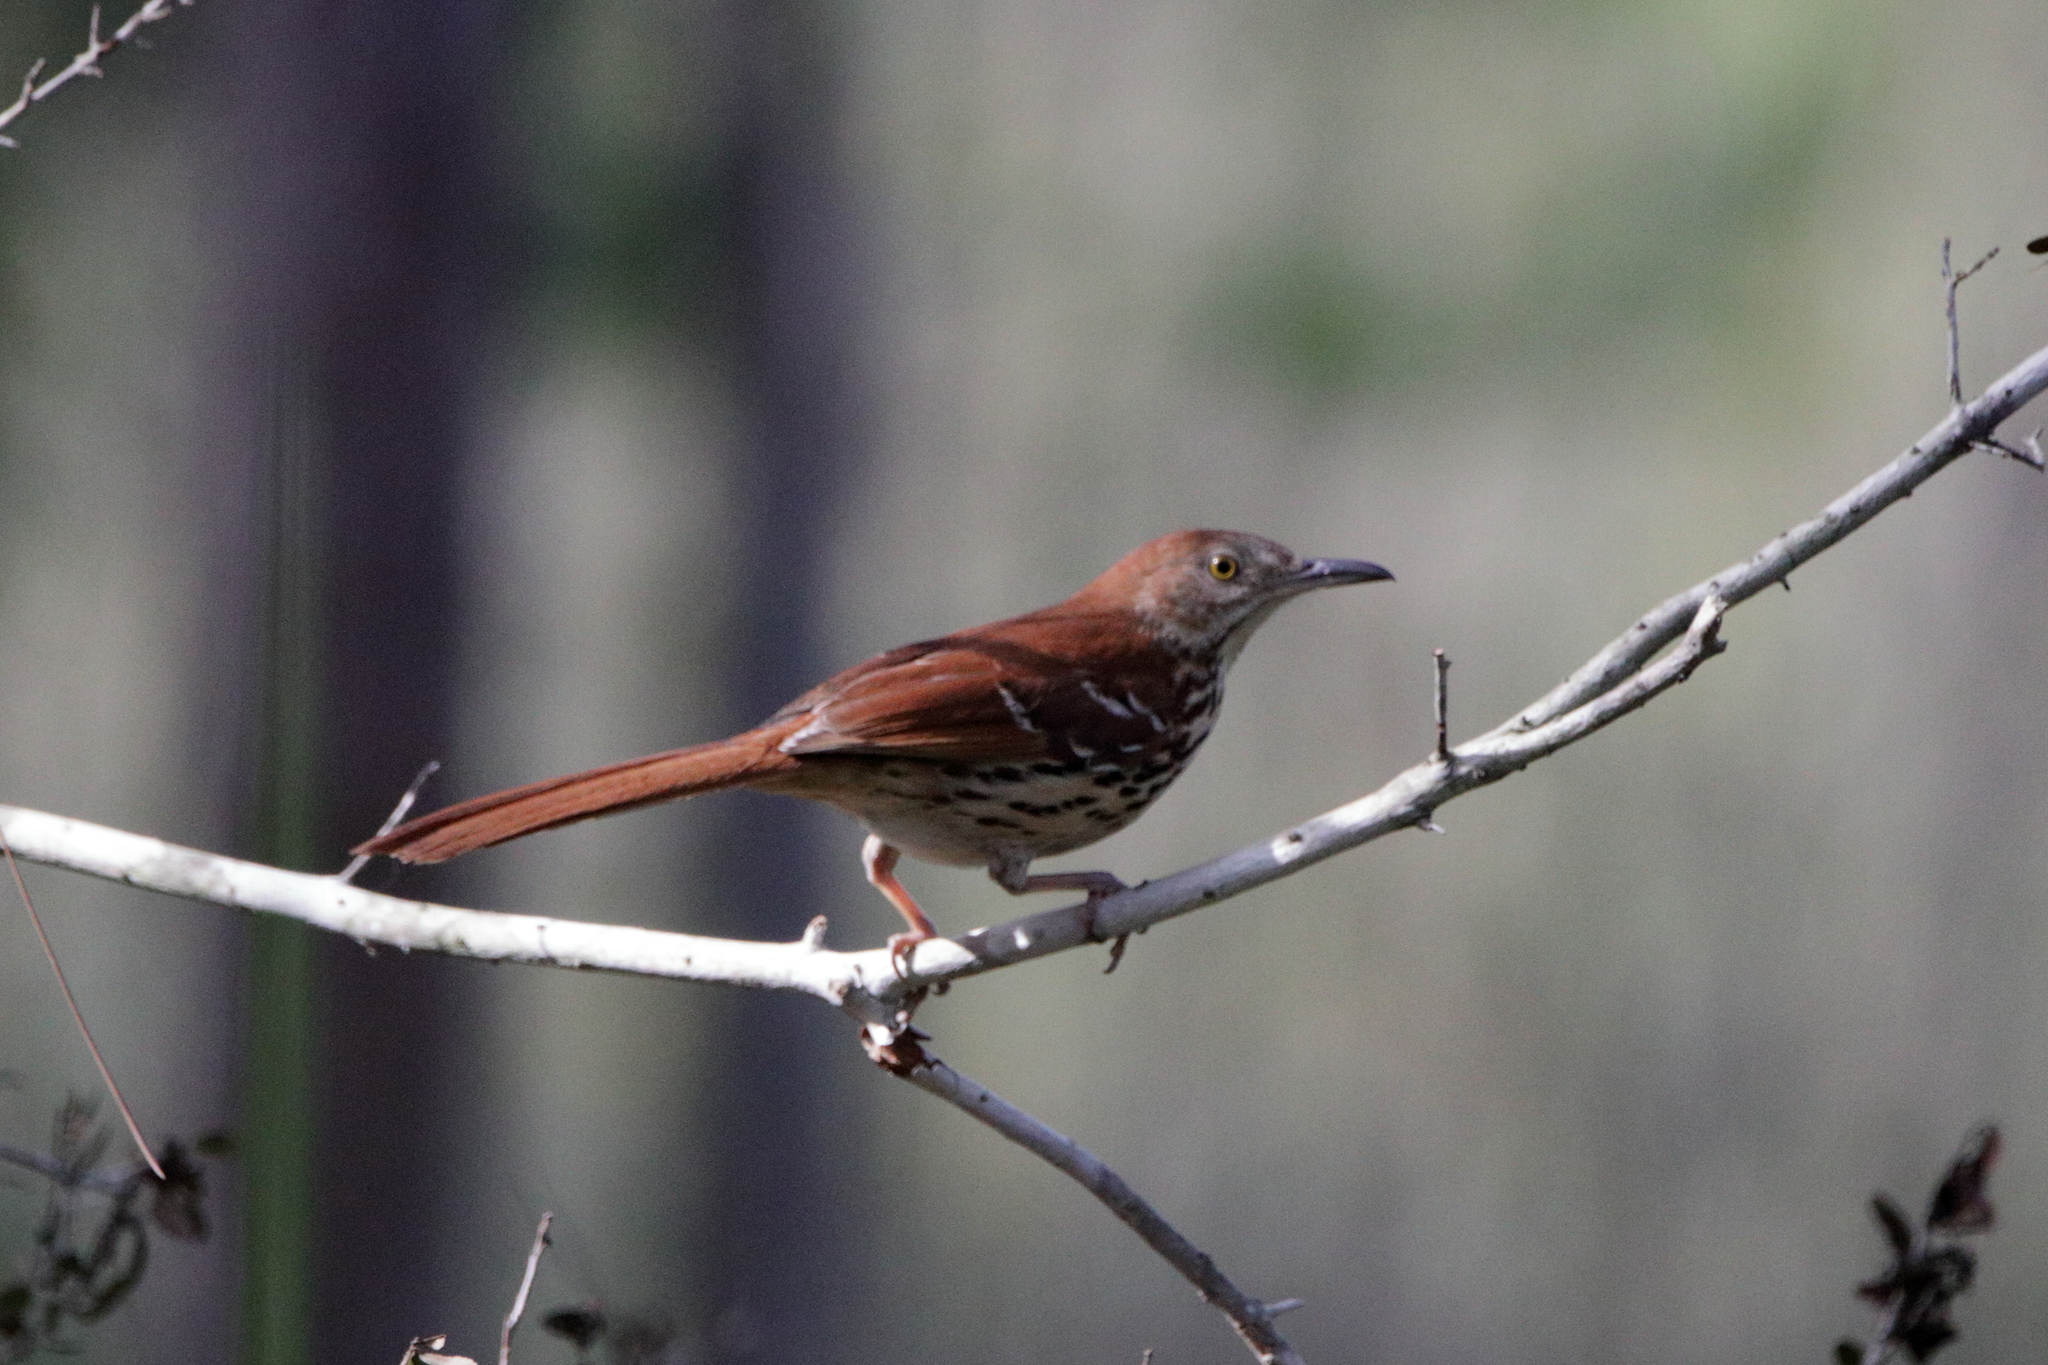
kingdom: Animalia
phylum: Chordata
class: Aves
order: Passeriformes
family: Mimidae
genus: Toxostoma
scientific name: Toxostoma rufum
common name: Brown thrasher
